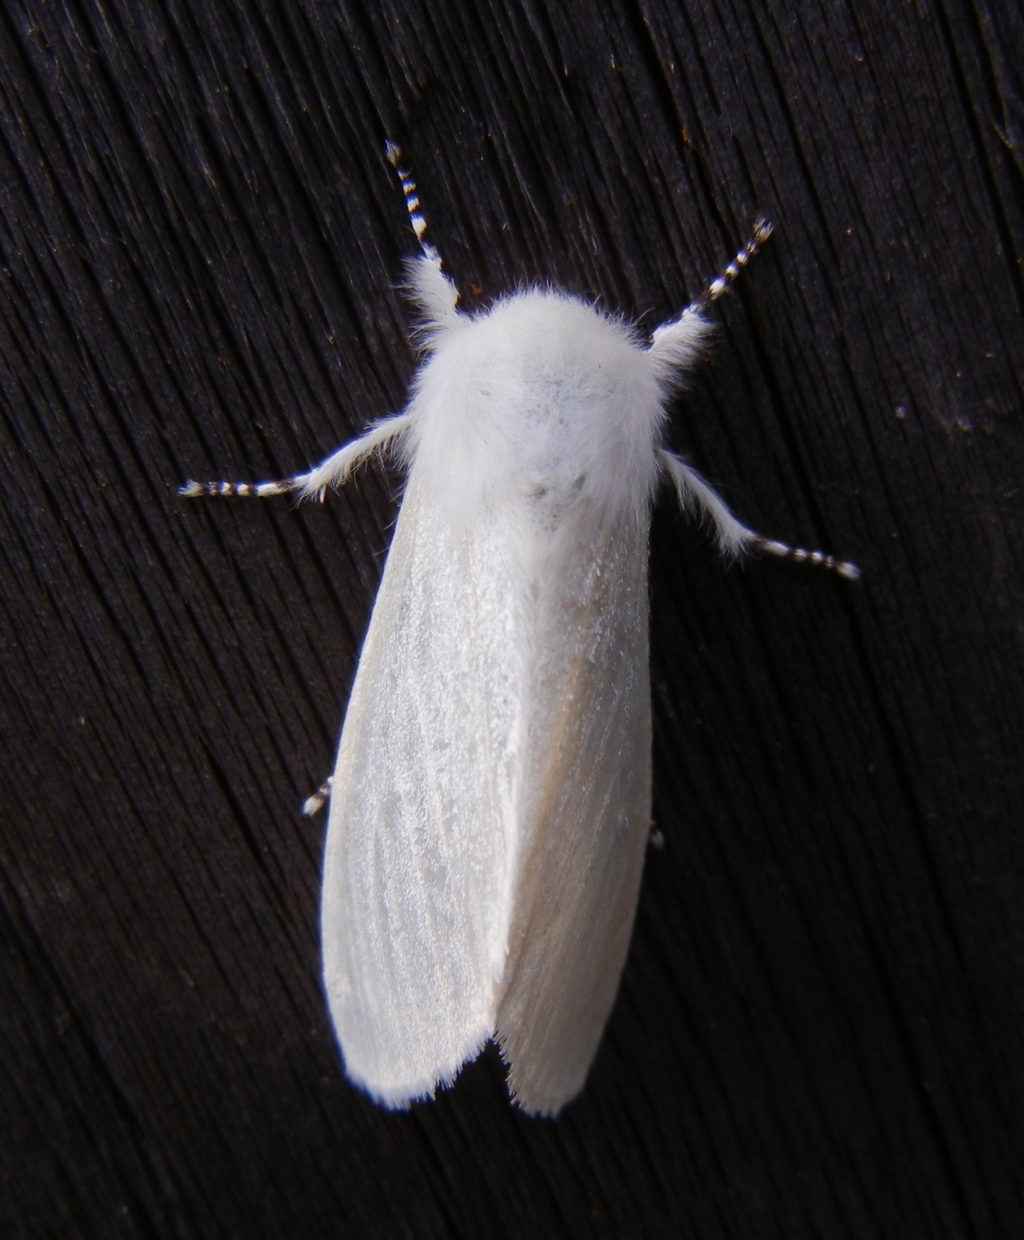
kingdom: Animalia
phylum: Arthropoda
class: Insecta
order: Lepidoptera
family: Erebidae
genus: Leucoma
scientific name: Leucoma salicis
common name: White satin moth
